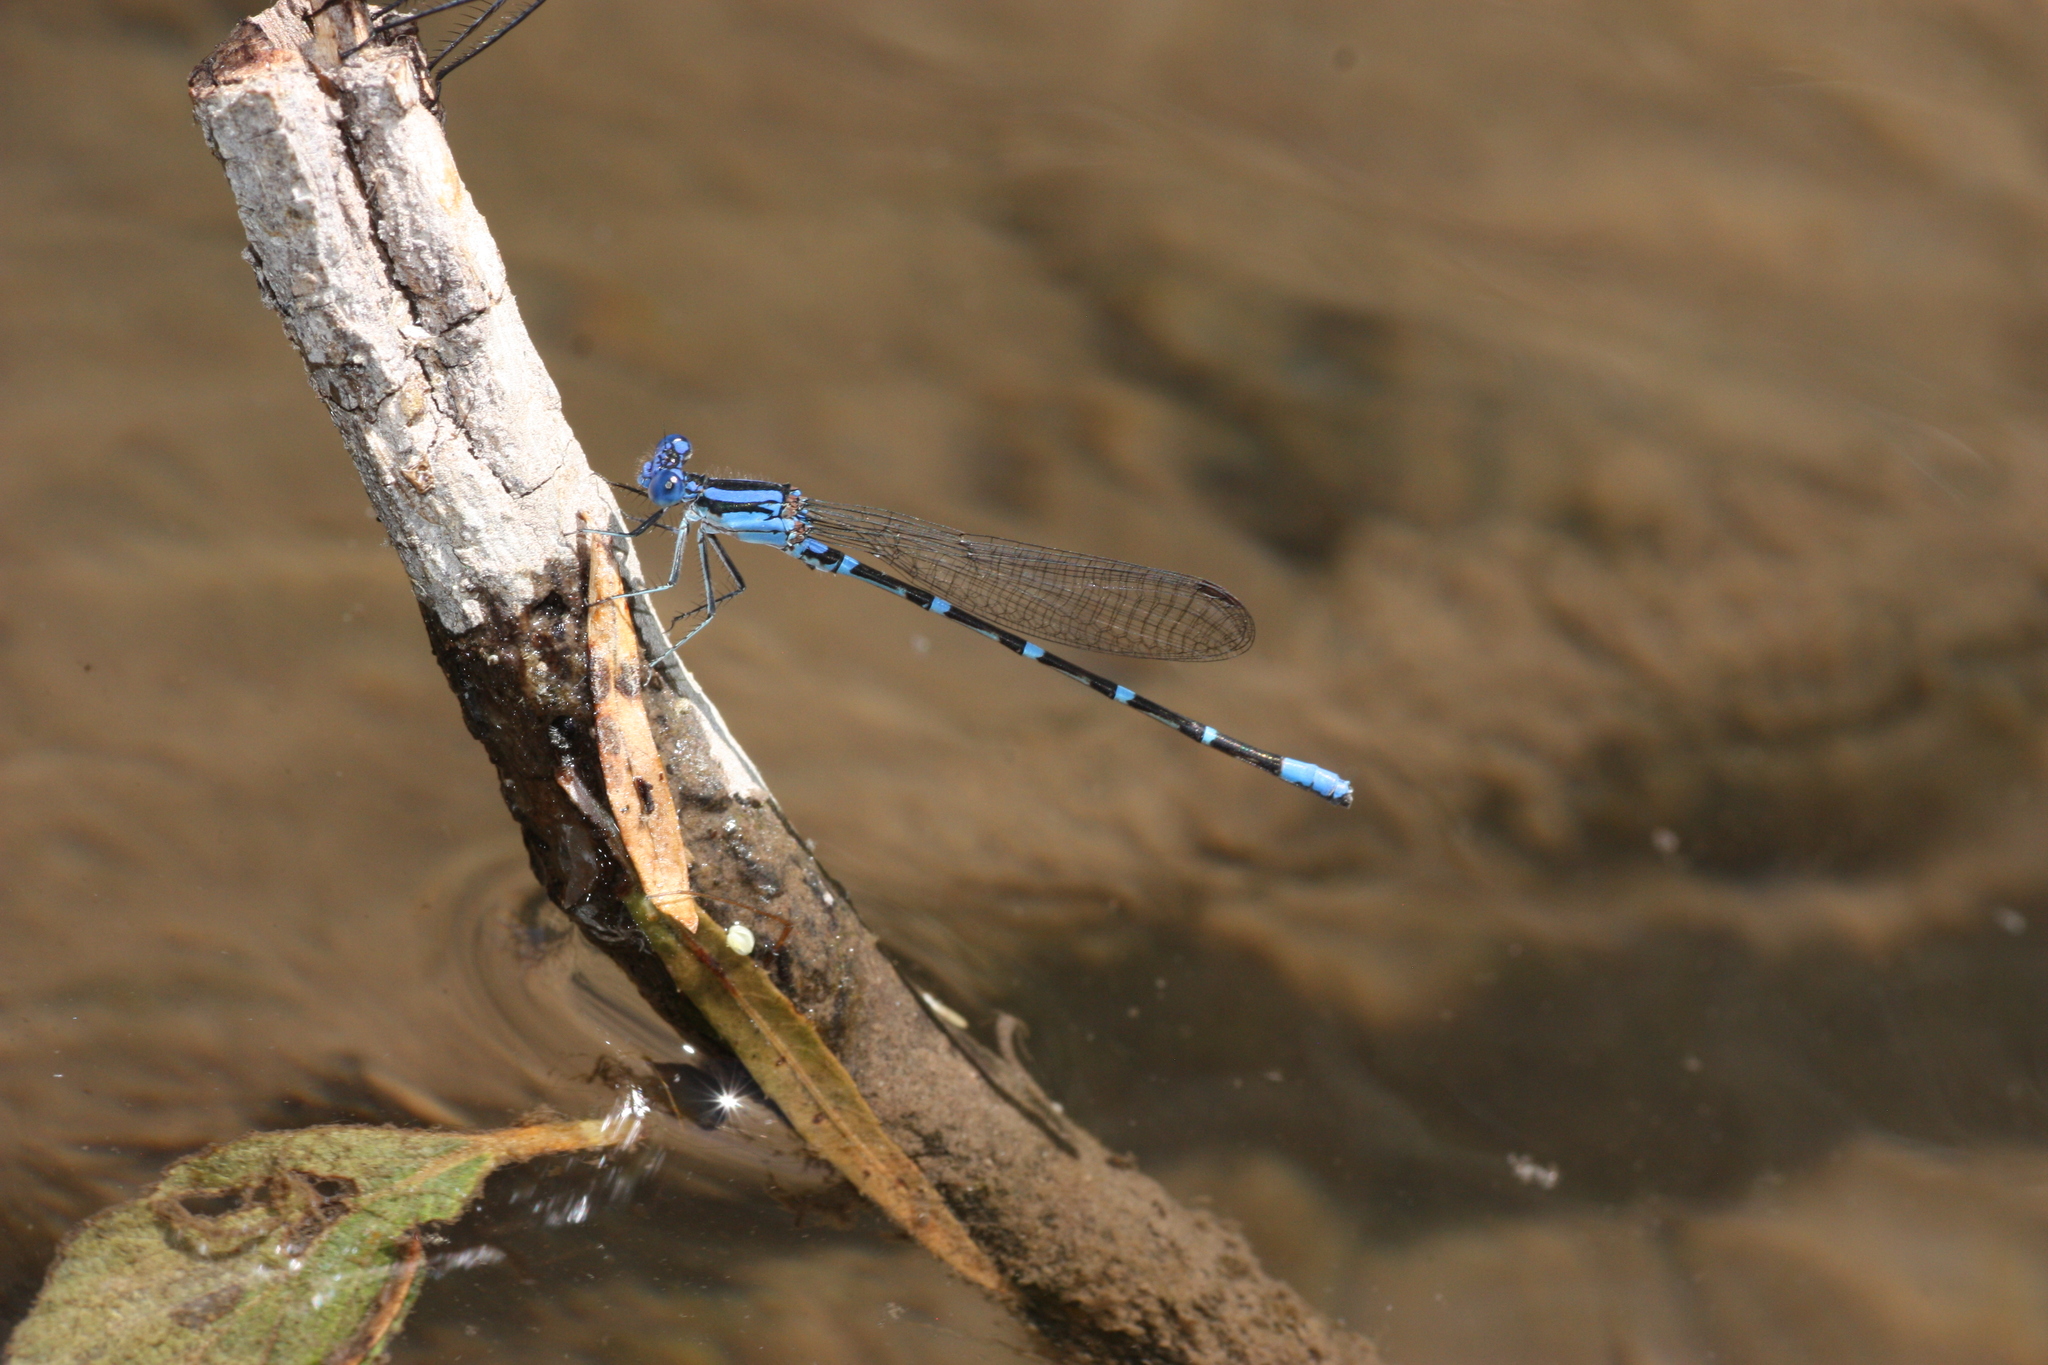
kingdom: Animalia
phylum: Arthropoda
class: Insecta
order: Odonata
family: Coenagrionidae
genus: Argia
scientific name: Argia sedula
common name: Blue-ringed dancer
